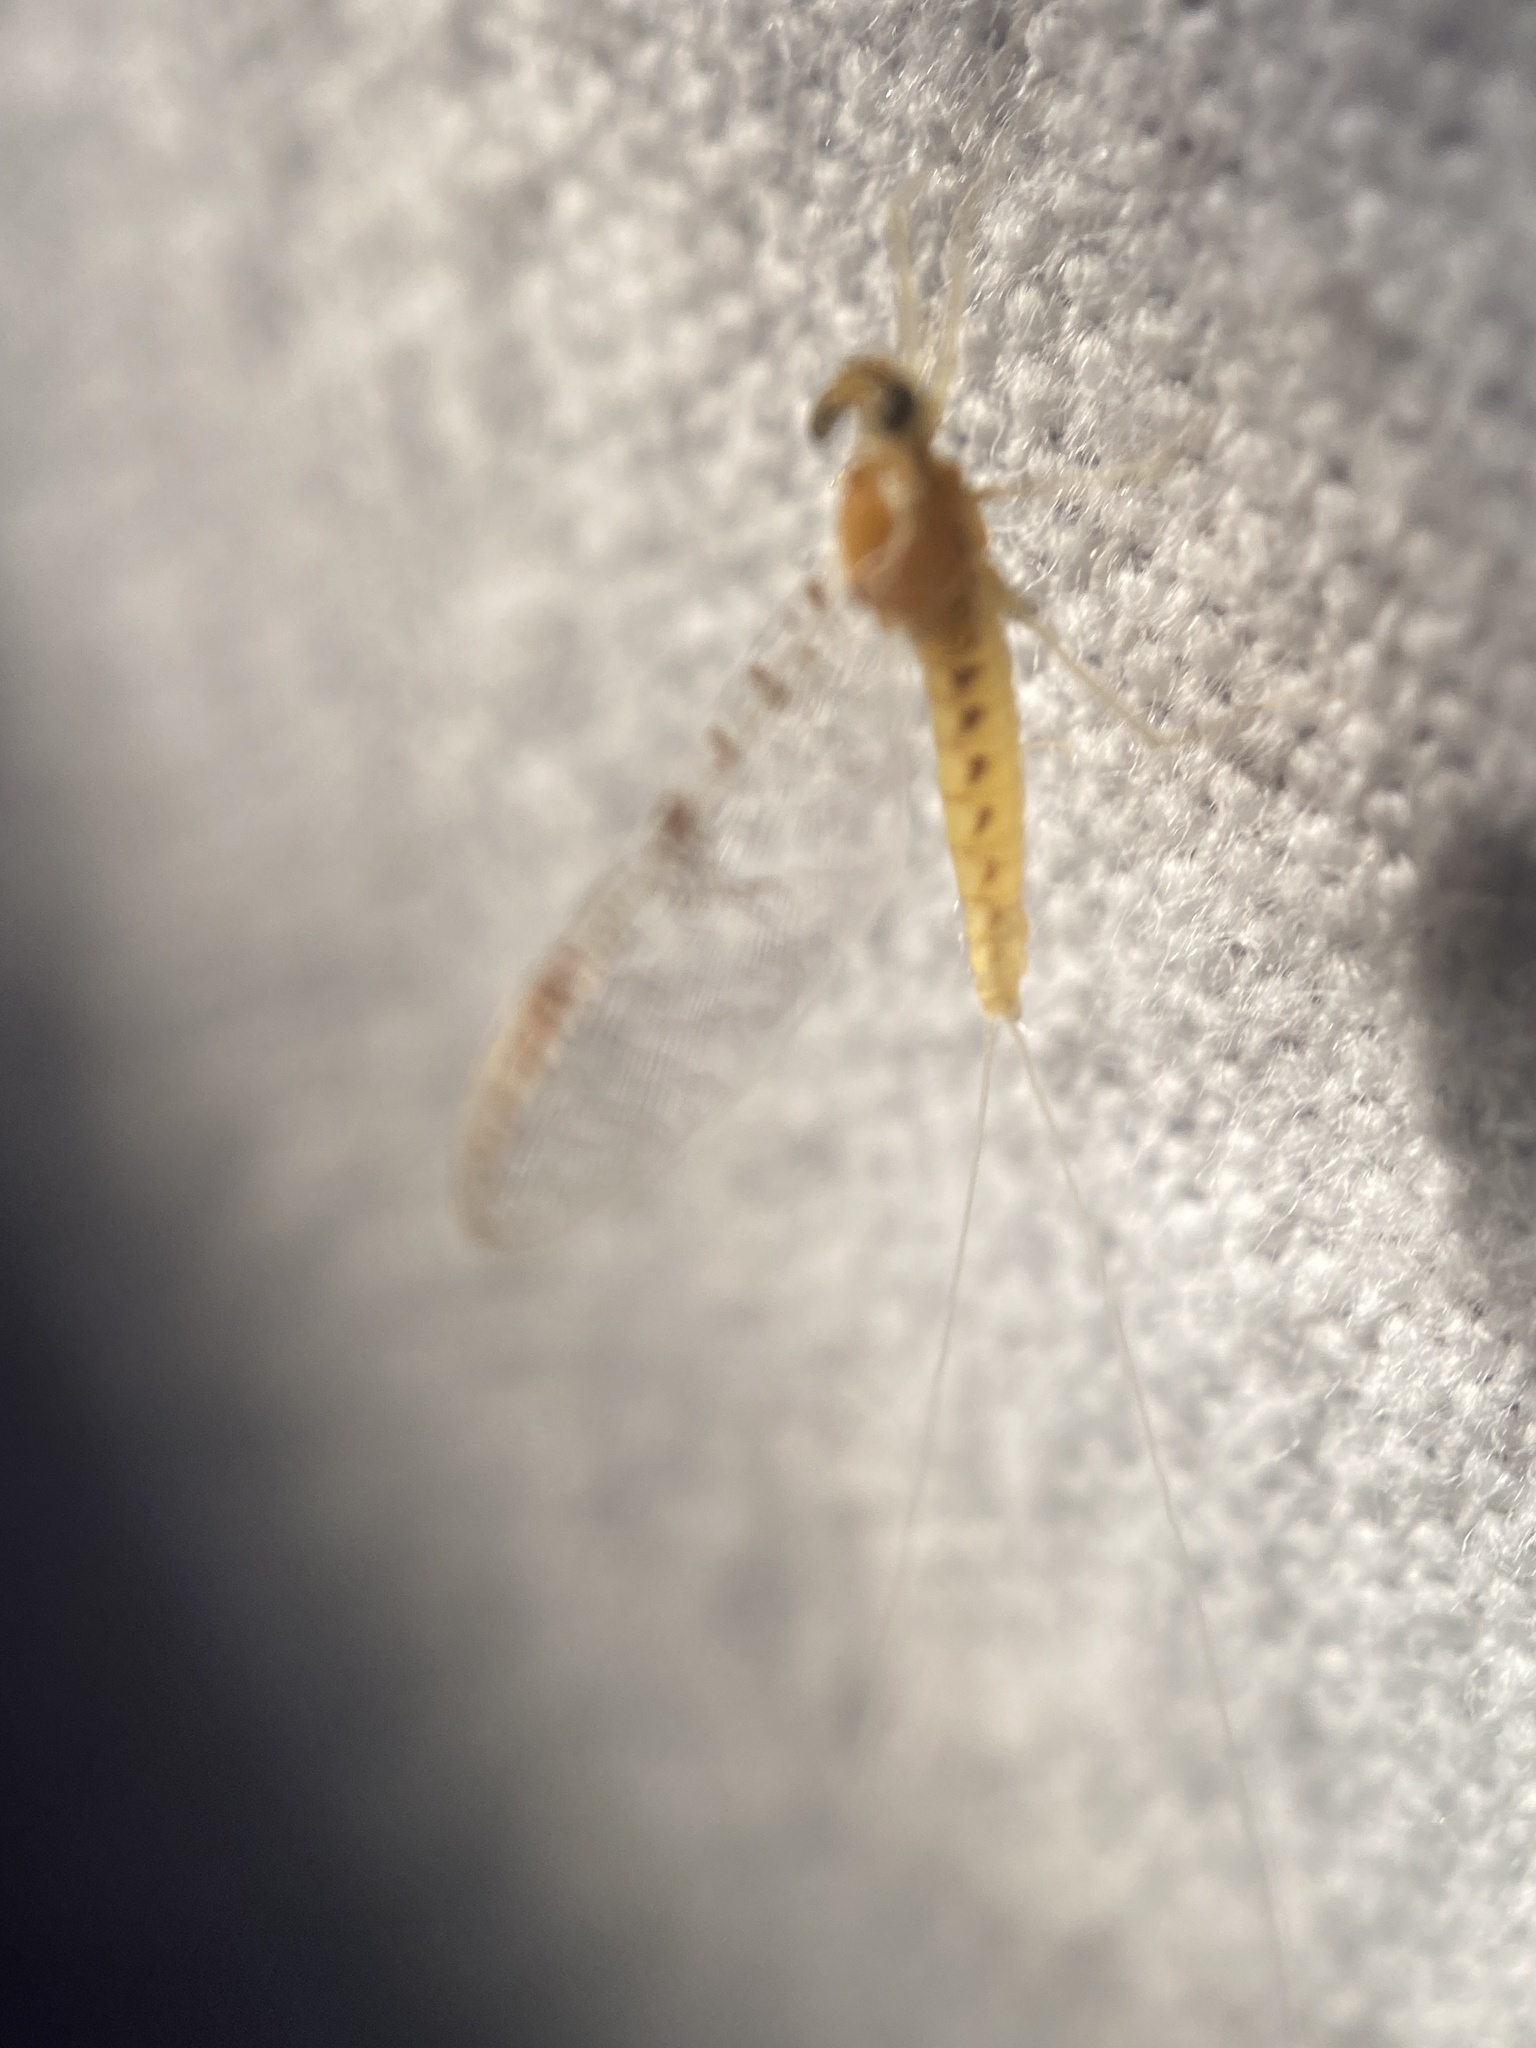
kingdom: Animalia
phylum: Arthropoda
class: Insecta
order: Ephemeroptera
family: Heptageniidae
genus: Leucrocuta
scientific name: Leucrocuta minerva
